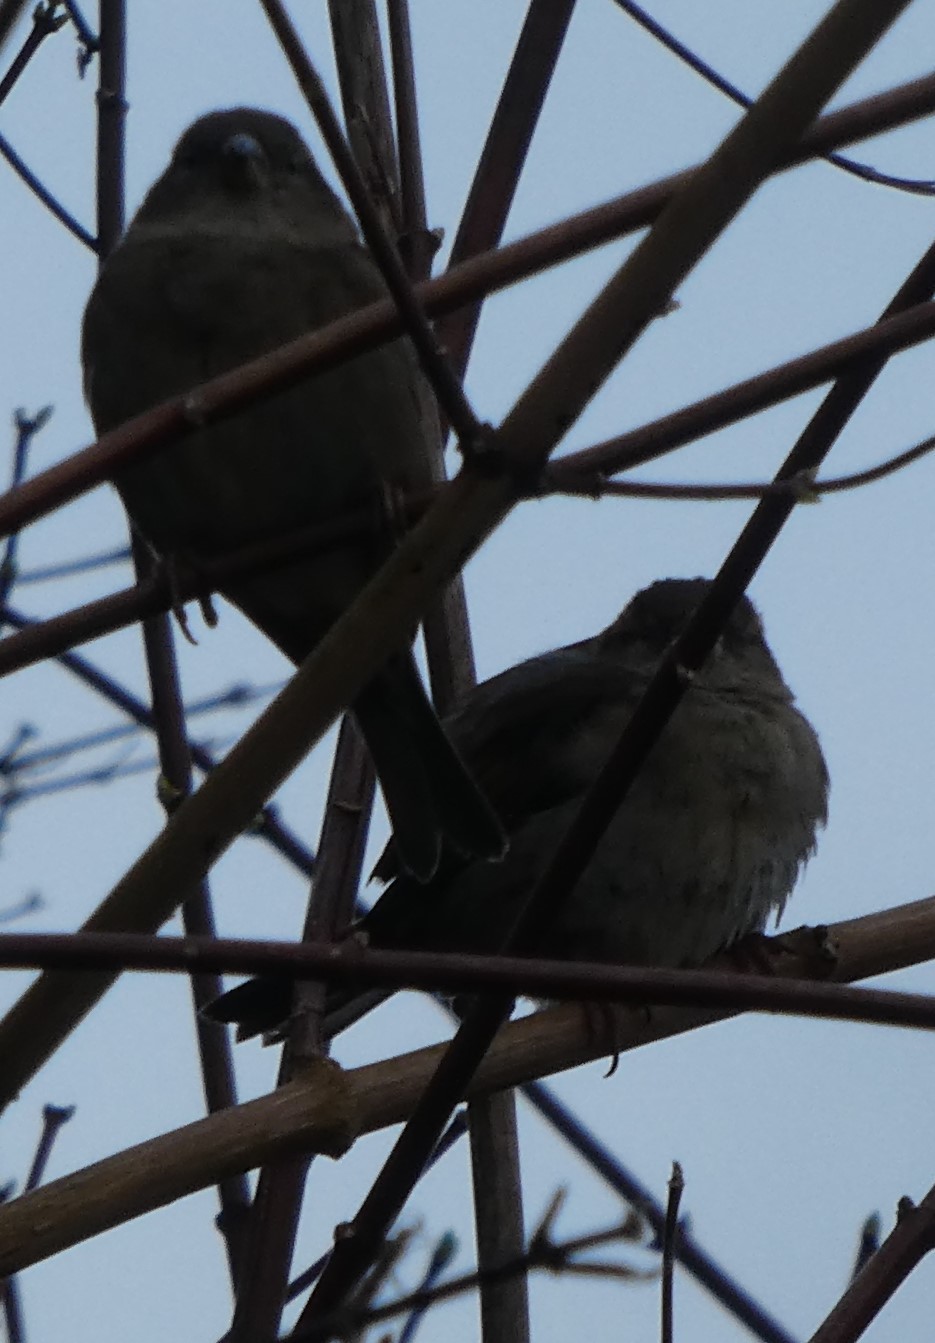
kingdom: Animalia
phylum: Chordata
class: Aves
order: Passeriformes
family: Passeridae
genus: Passer
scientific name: Passer domesticus
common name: House sparrow
